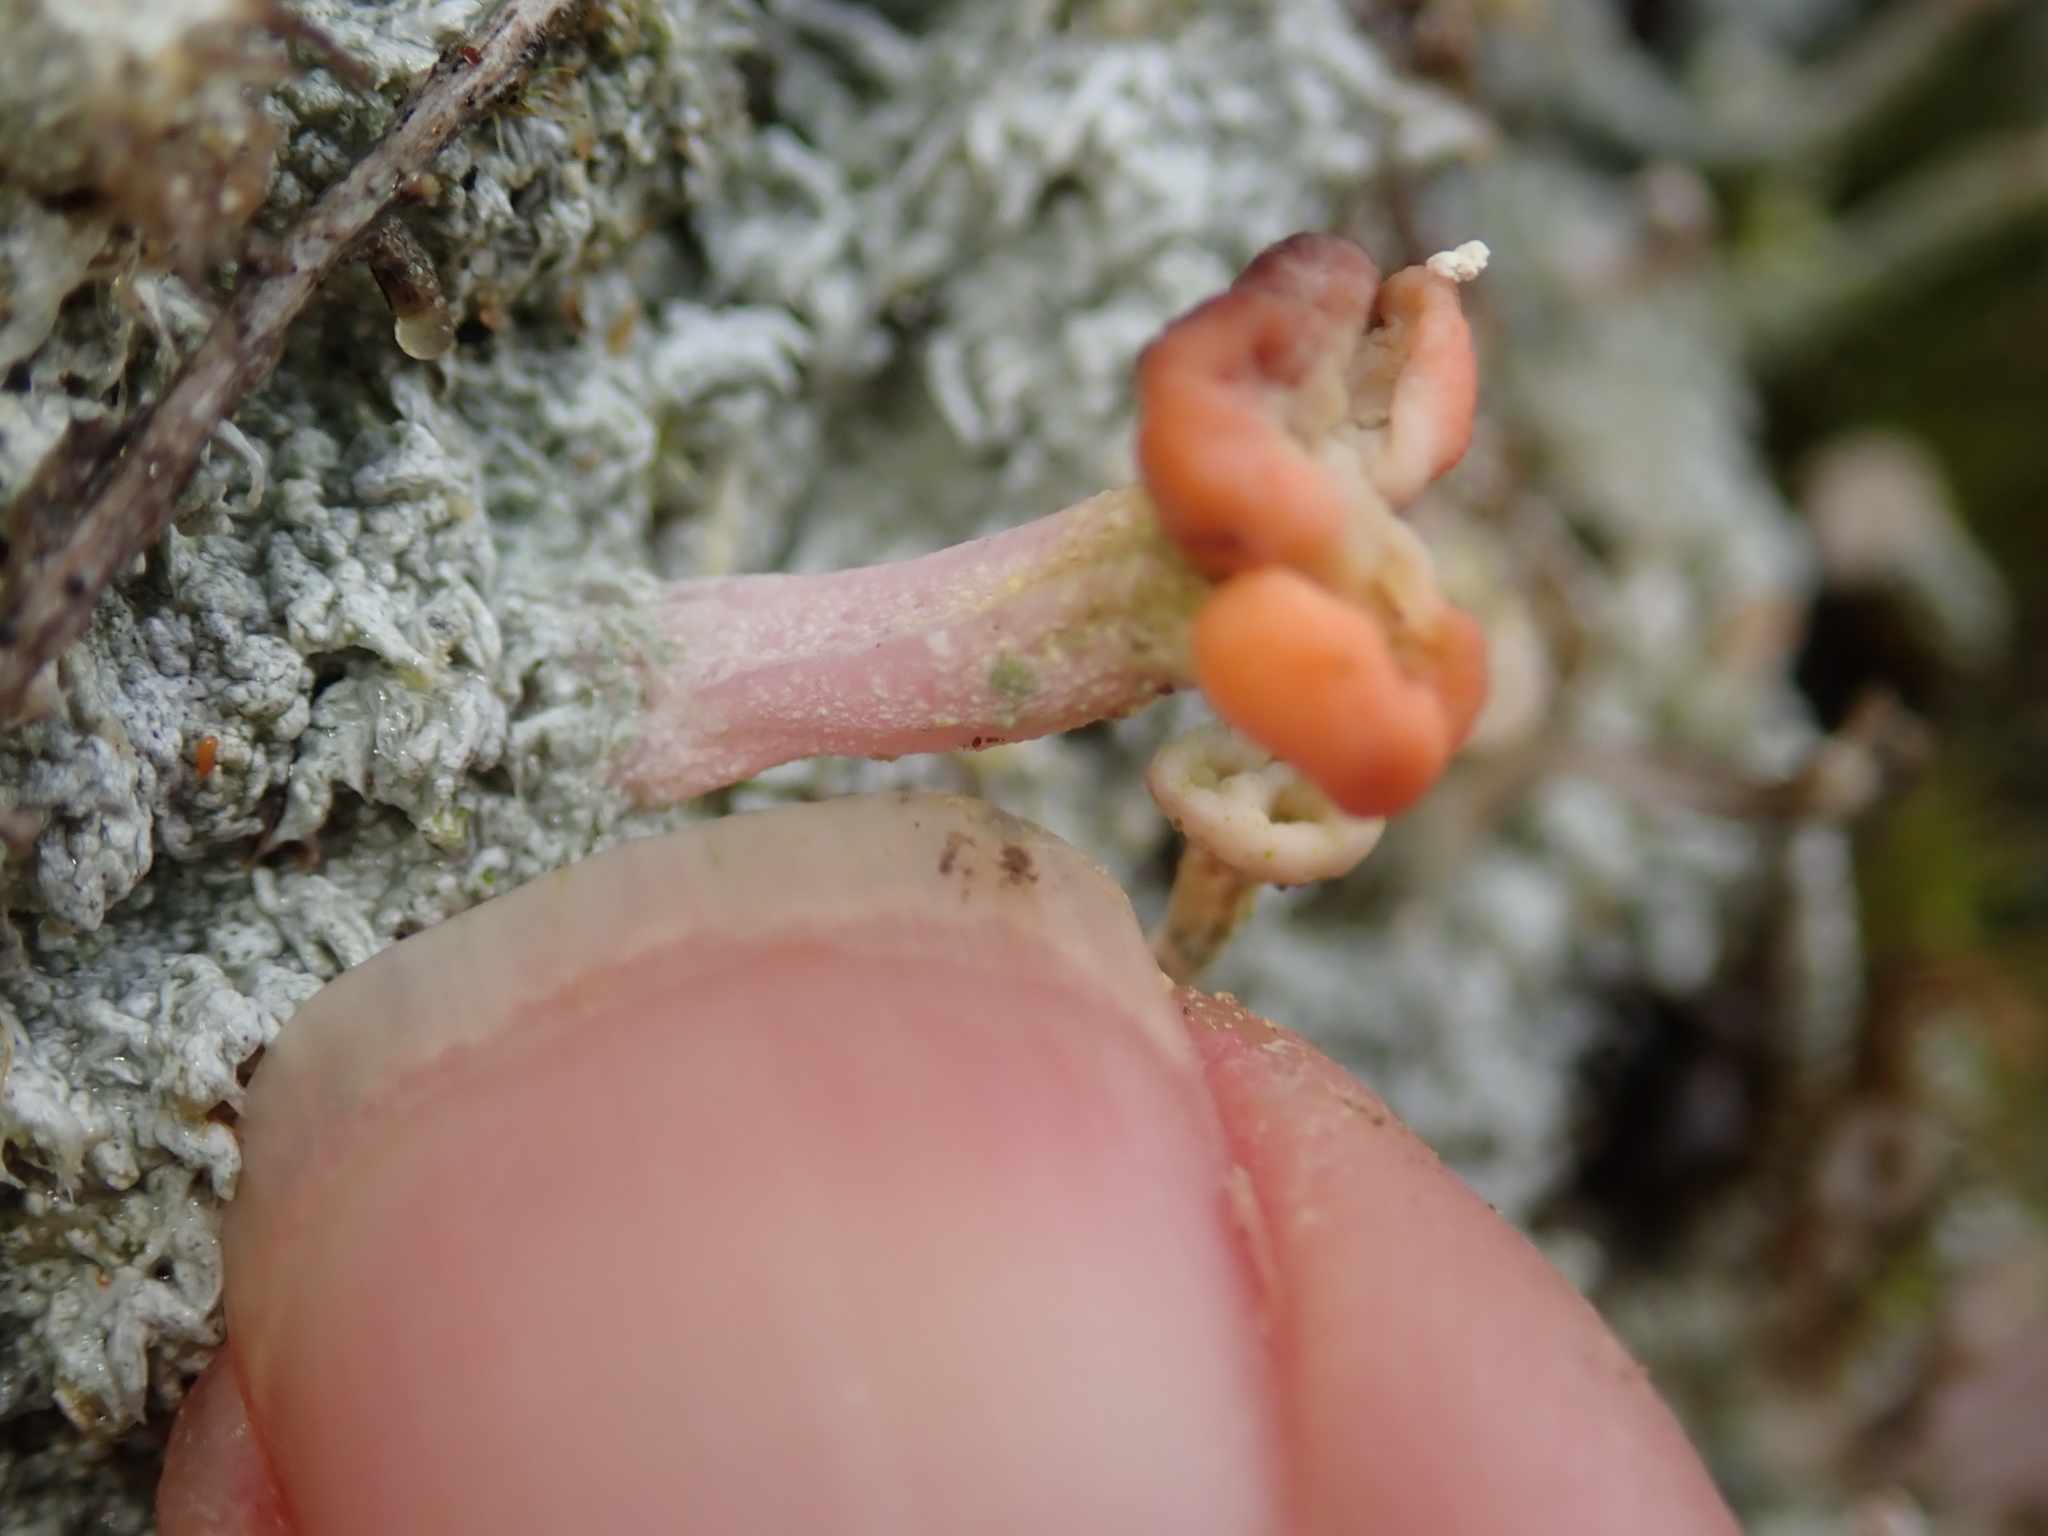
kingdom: Fungi
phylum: Ascomycota
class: Lecanoromycetes
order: Pertusariales
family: Icmadophilaceae
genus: Dibaeis
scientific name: Dibaeis arcuata
